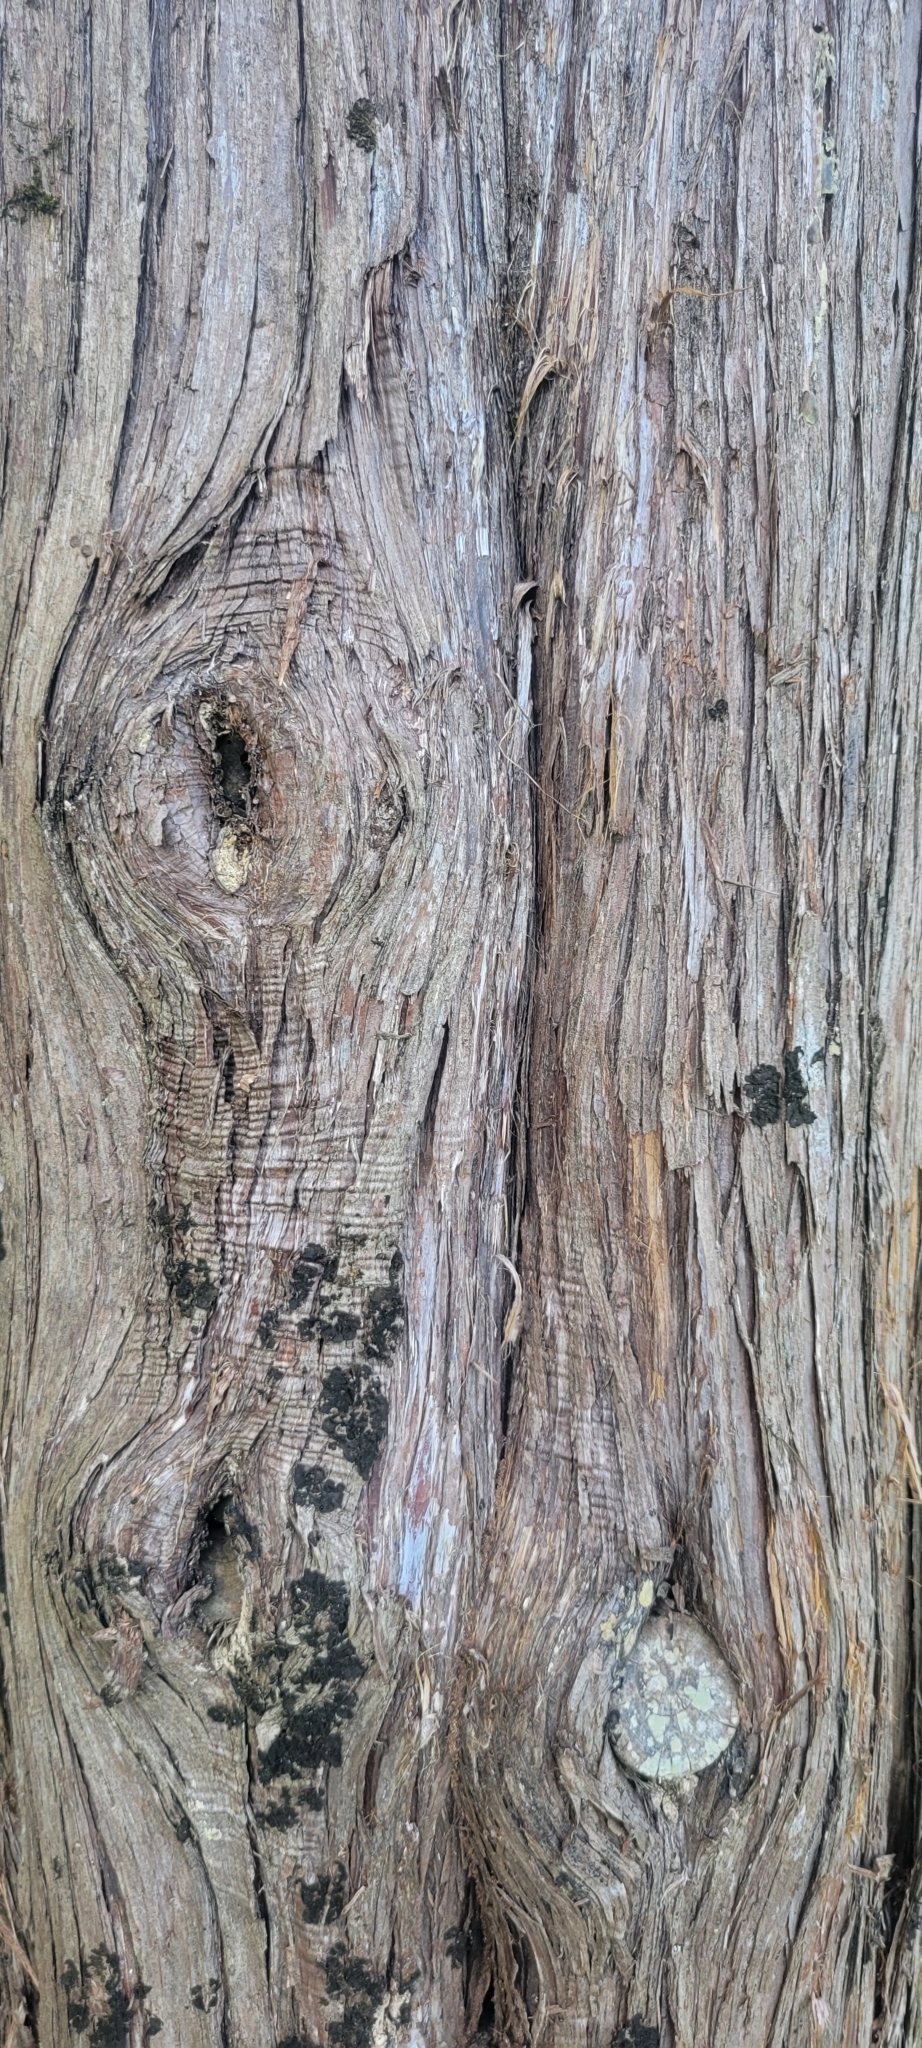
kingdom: Plantae
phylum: Tracheophyta
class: Pinopsida
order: Pinales
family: Cupressaceae
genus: Juniperus
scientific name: Juniperus virginiana
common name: Red juniper
